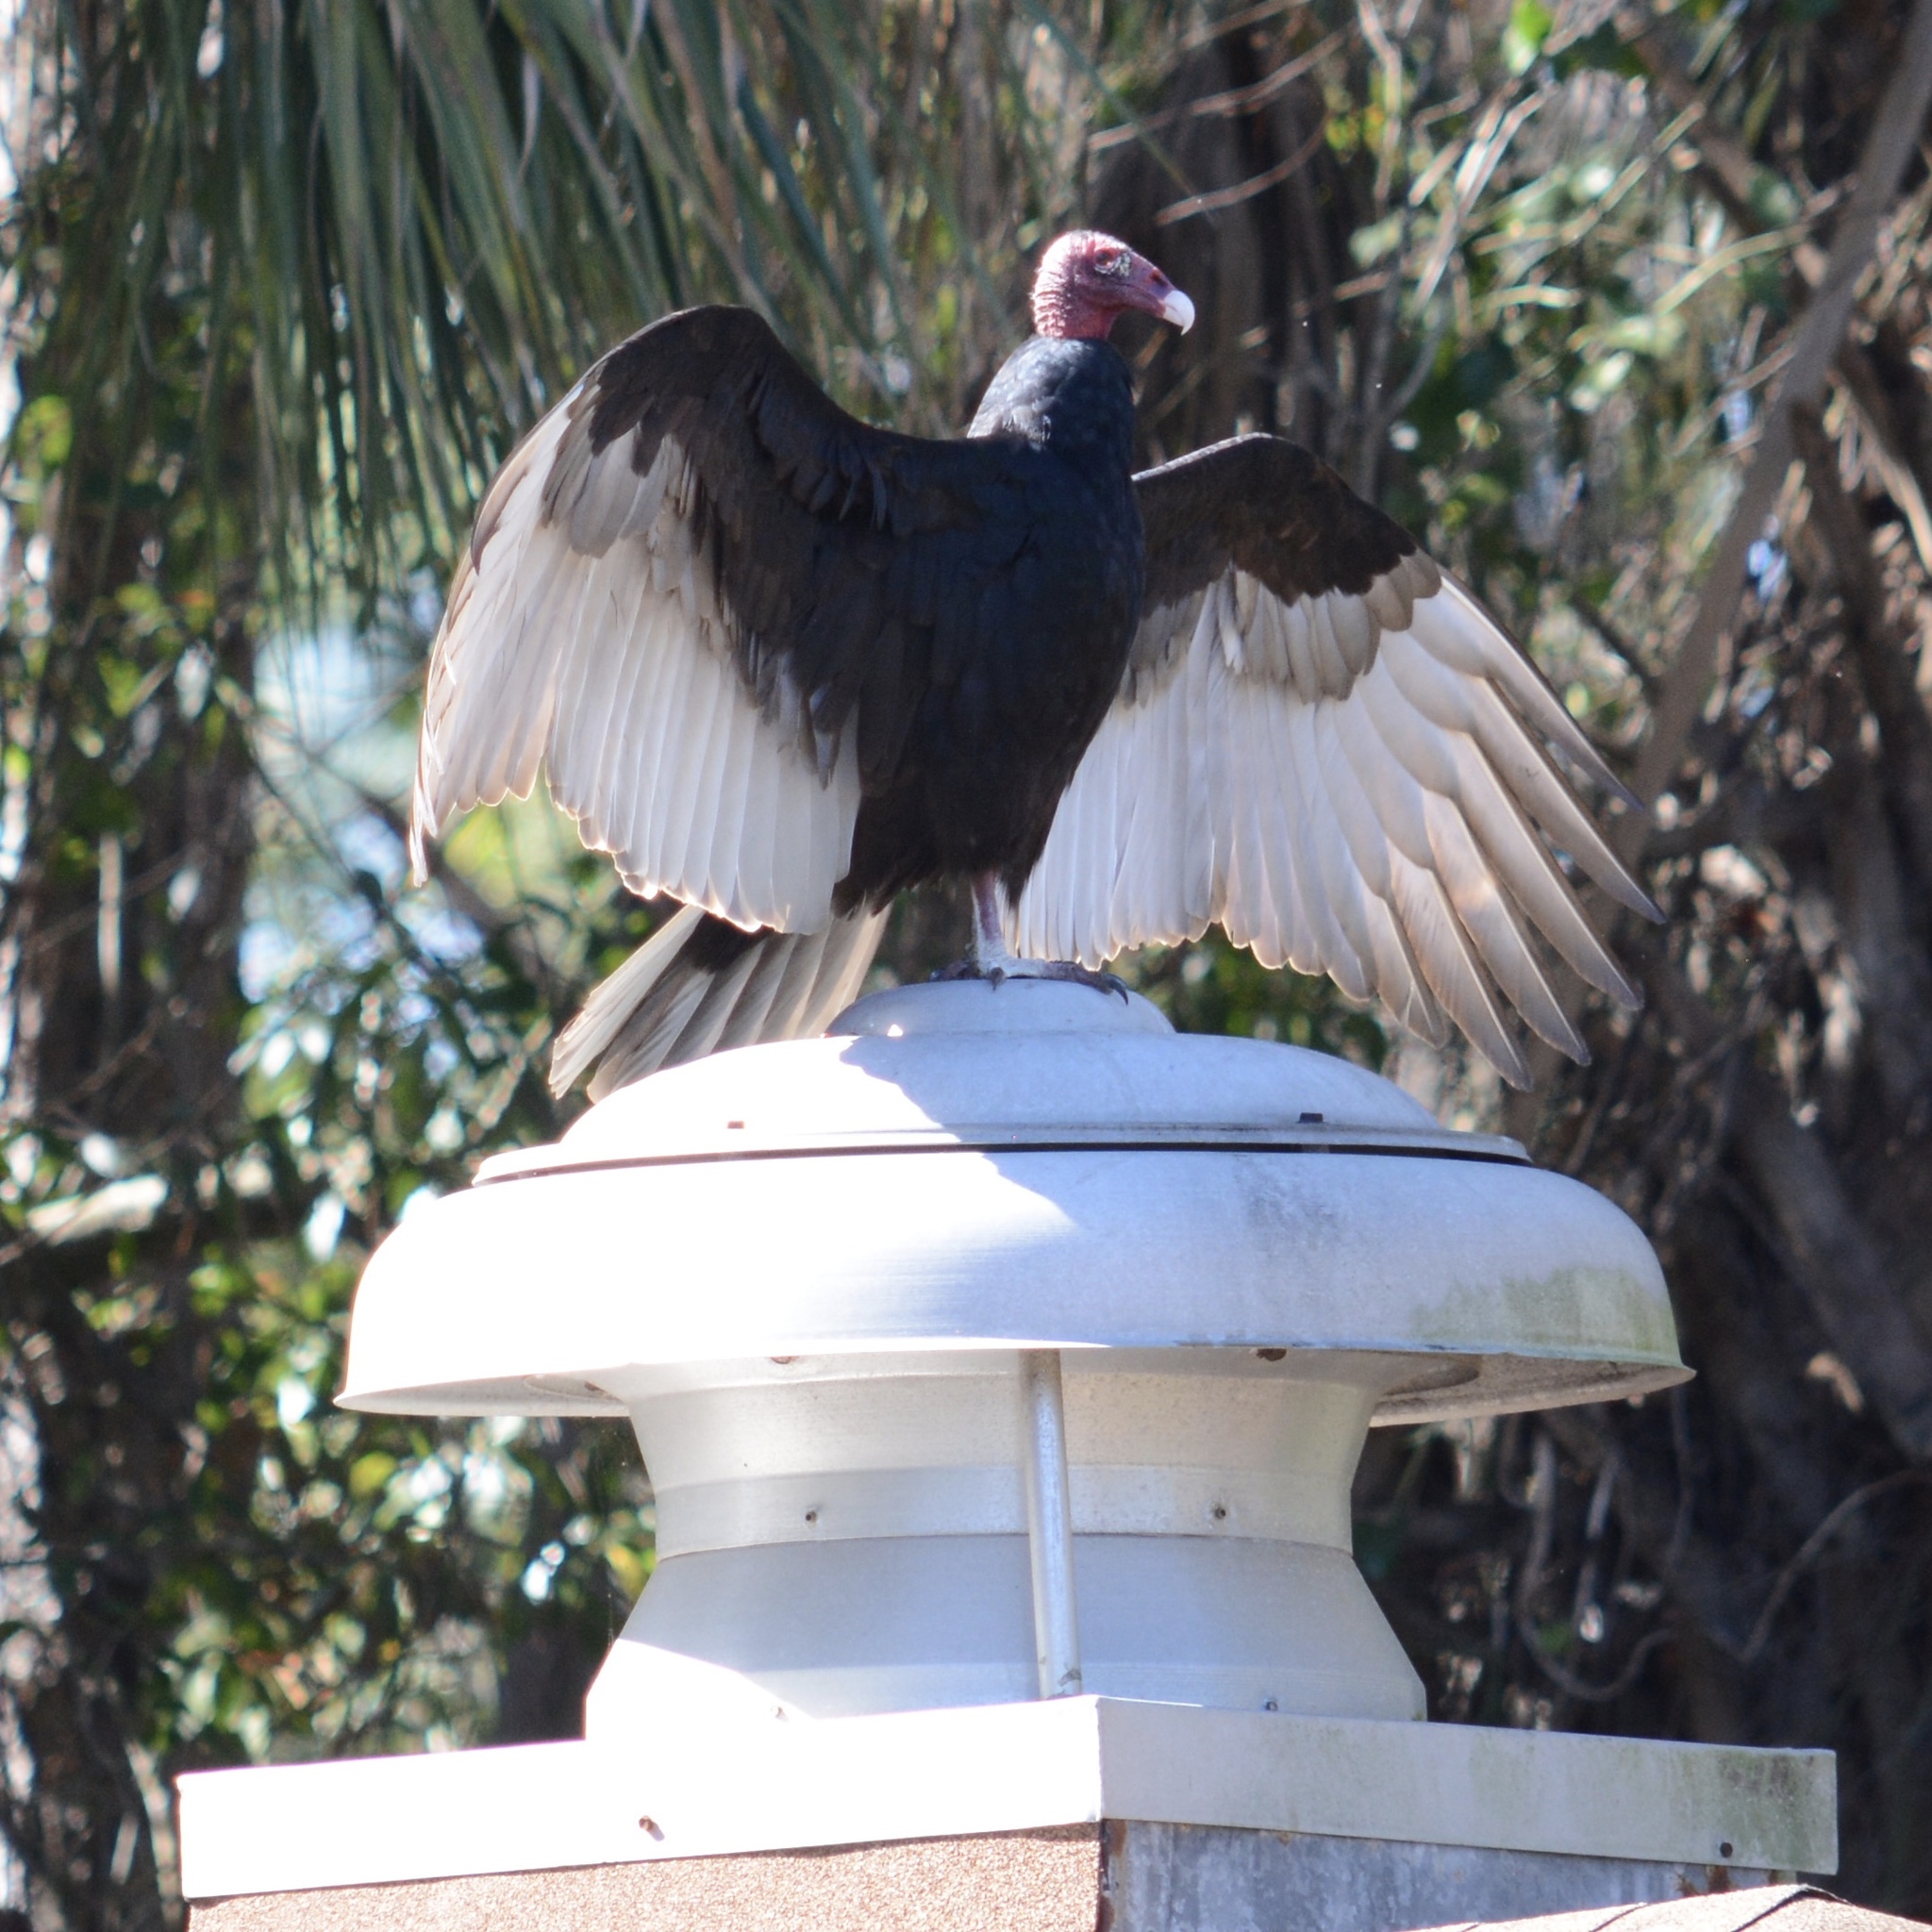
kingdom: Animalia
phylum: Chordata
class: Aves
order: Accipitriformes
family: Cathartidae
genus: Cathartes
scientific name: Cathartes aura
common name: Turkey vulture
